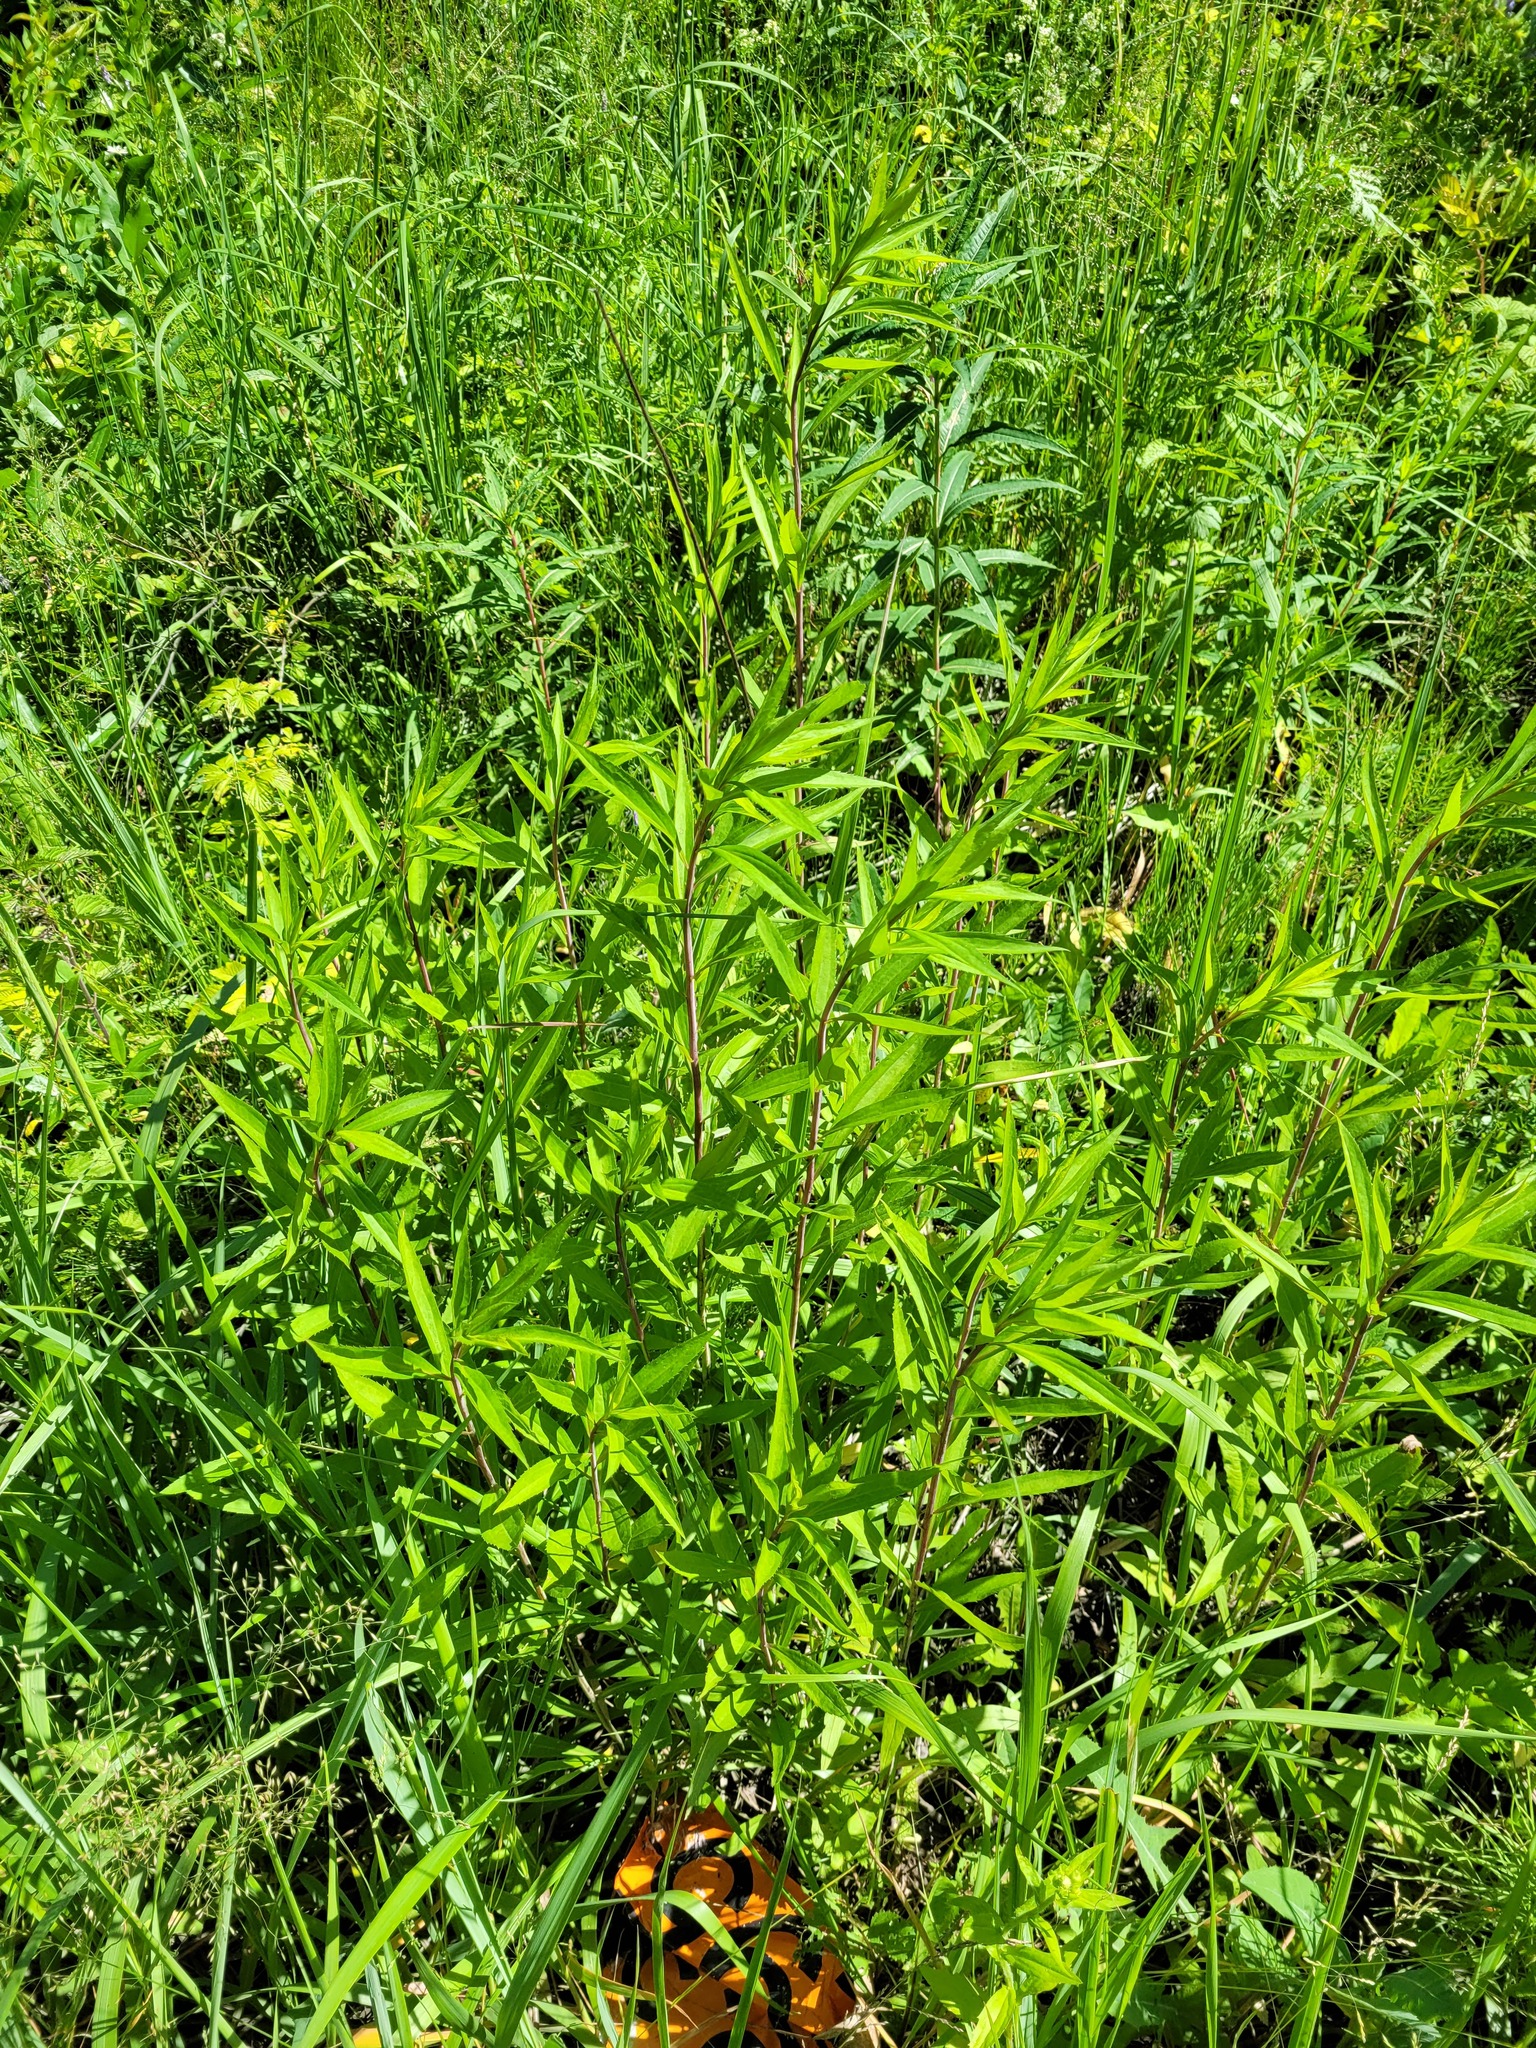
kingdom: Plantae
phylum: Tracheophyta
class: Magnoliopsida
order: Asterales
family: Asteraceae
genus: Solidago
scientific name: Solidago gigantea
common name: Giant goldenrod
